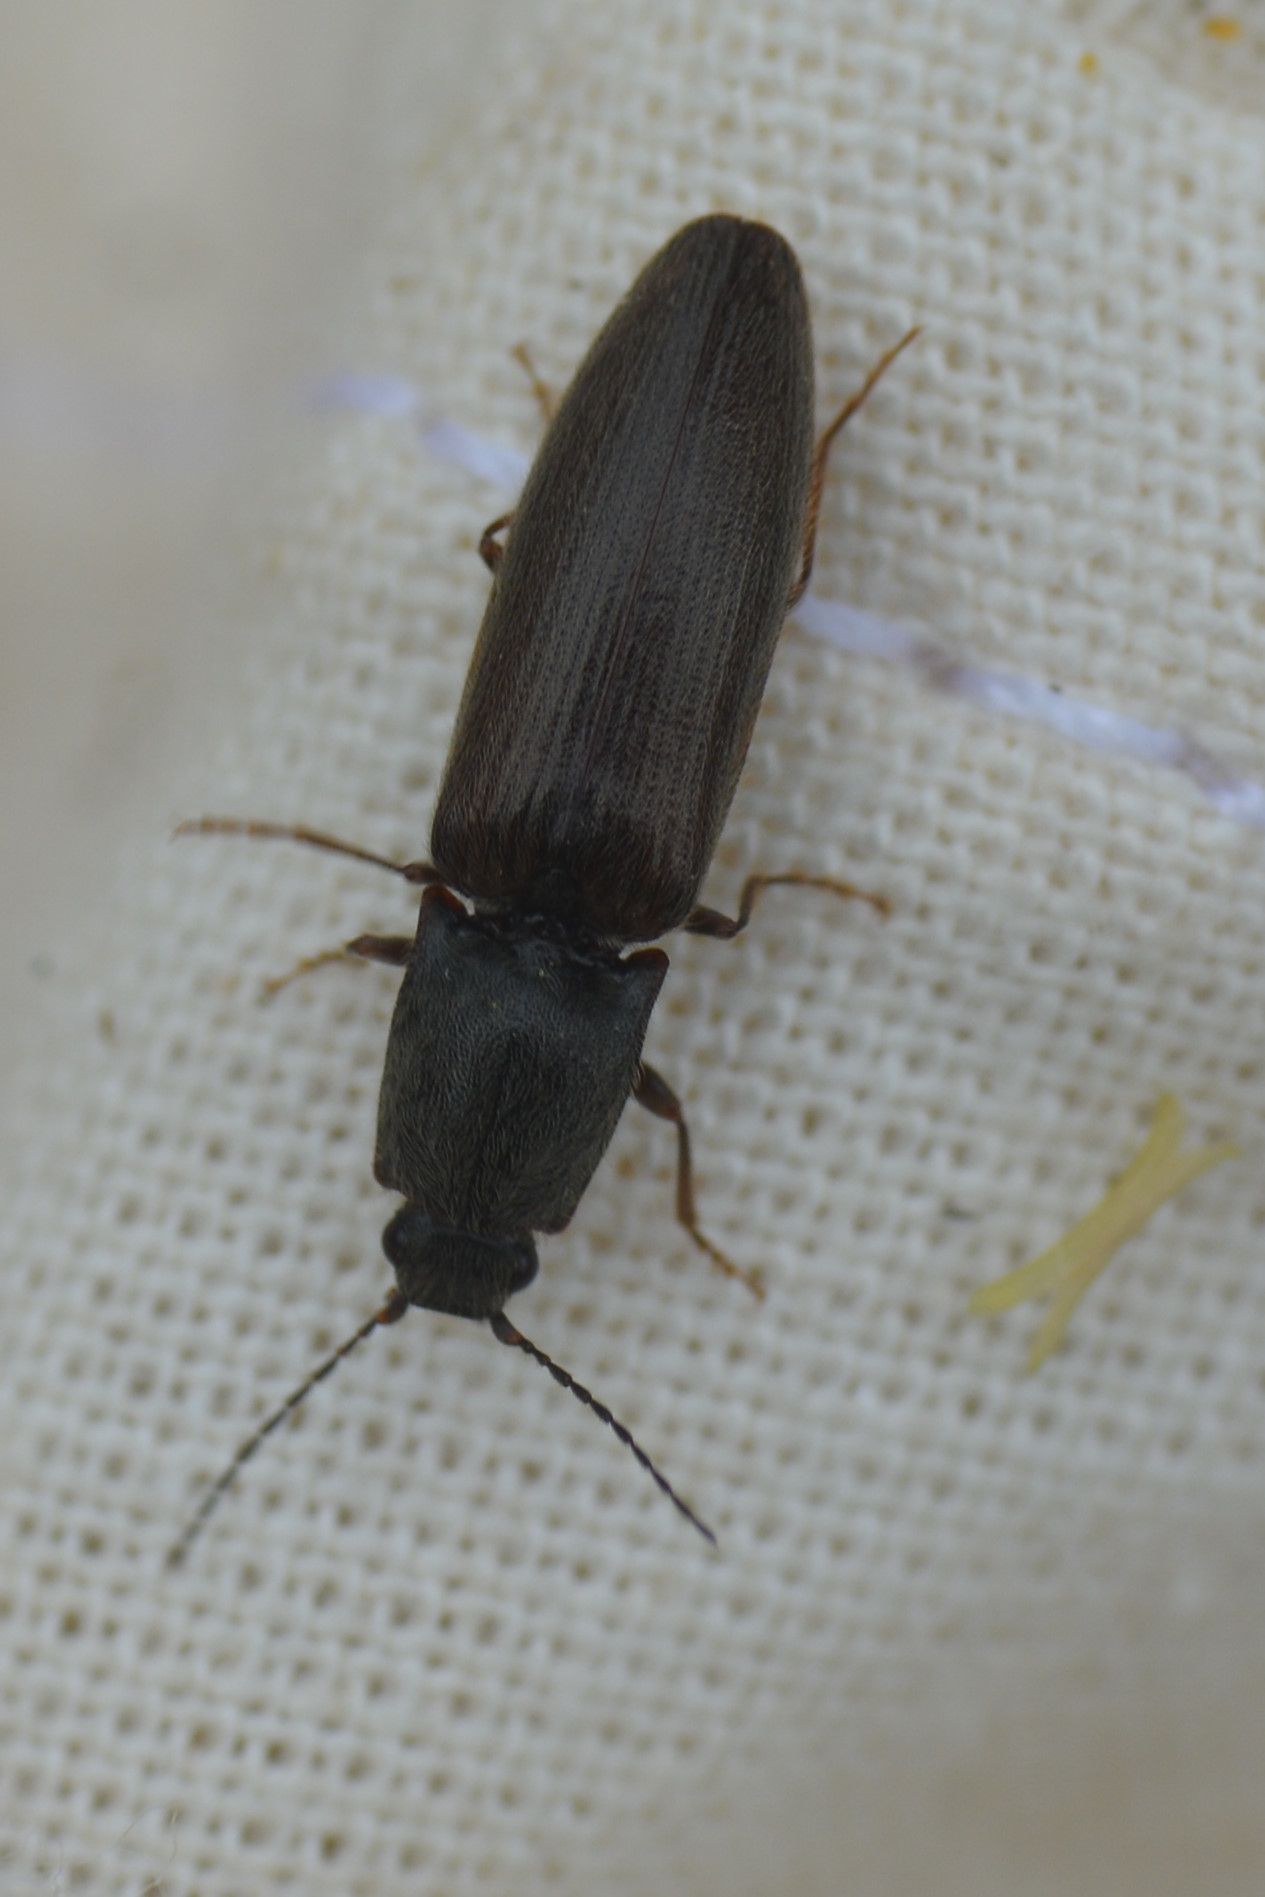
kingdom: Animalia
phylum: Arthropoda
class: Insecta
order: Coleoptera
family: Elateridae
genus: Athous
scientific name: Athous haemorrhoidalis
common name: Red-brown click beetle
